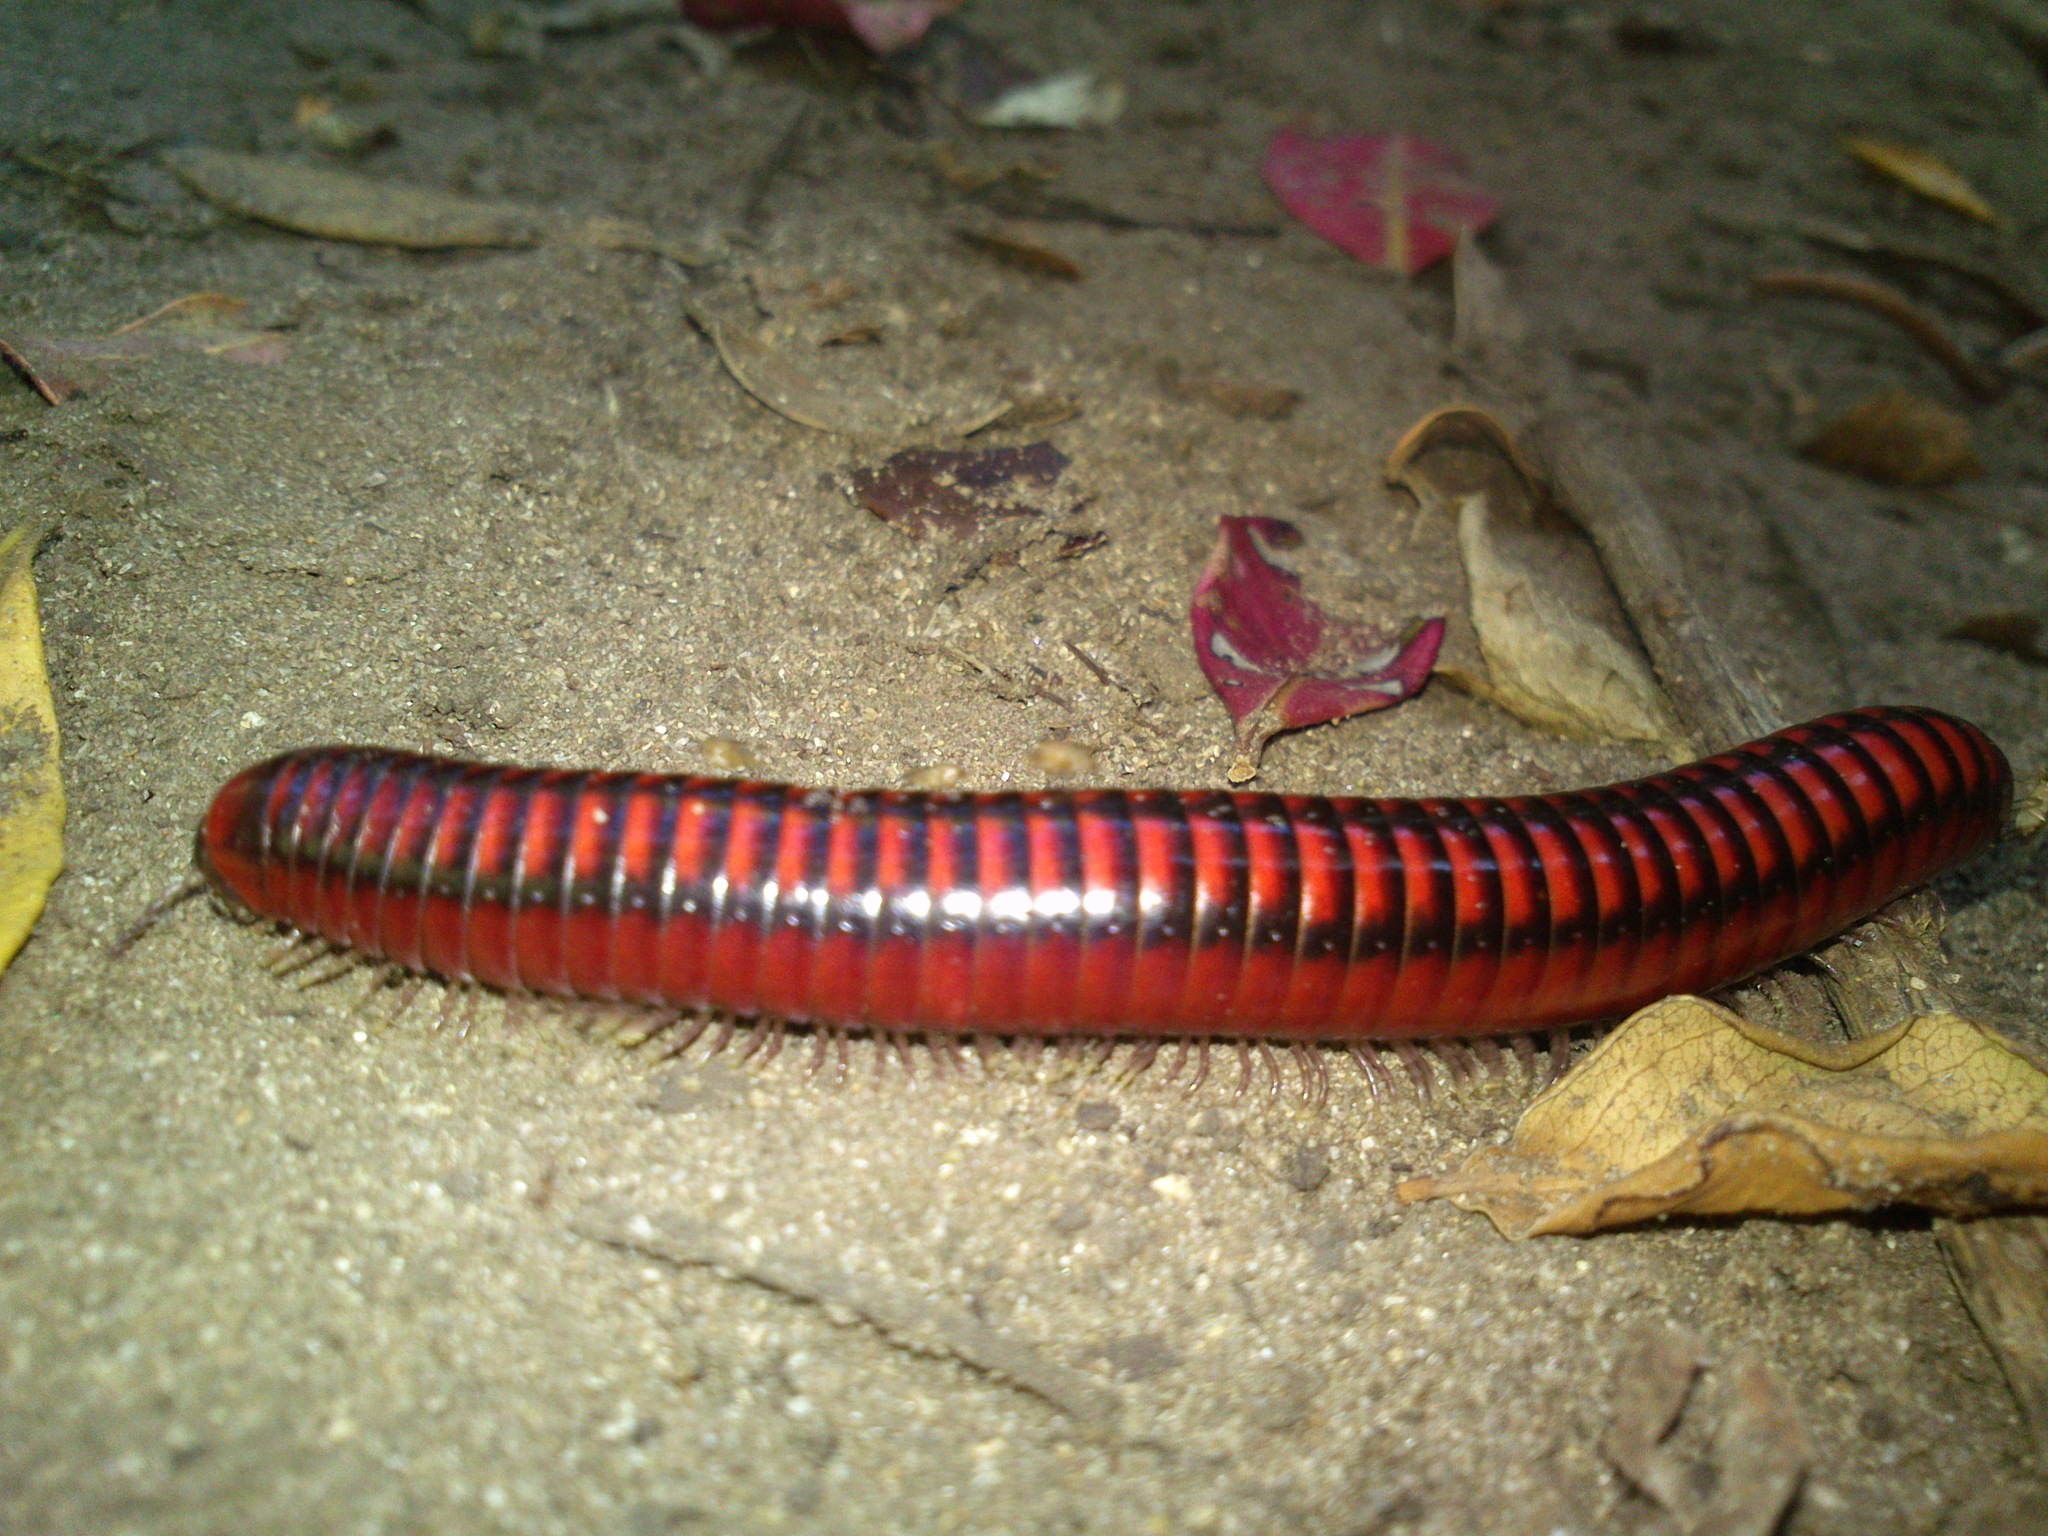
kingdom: Animalia
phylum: Arthropoda
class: Diplopoda
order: Spirobolida
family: Pachybolidae
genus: Centrobolus
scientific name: Centrobolus lugubris
